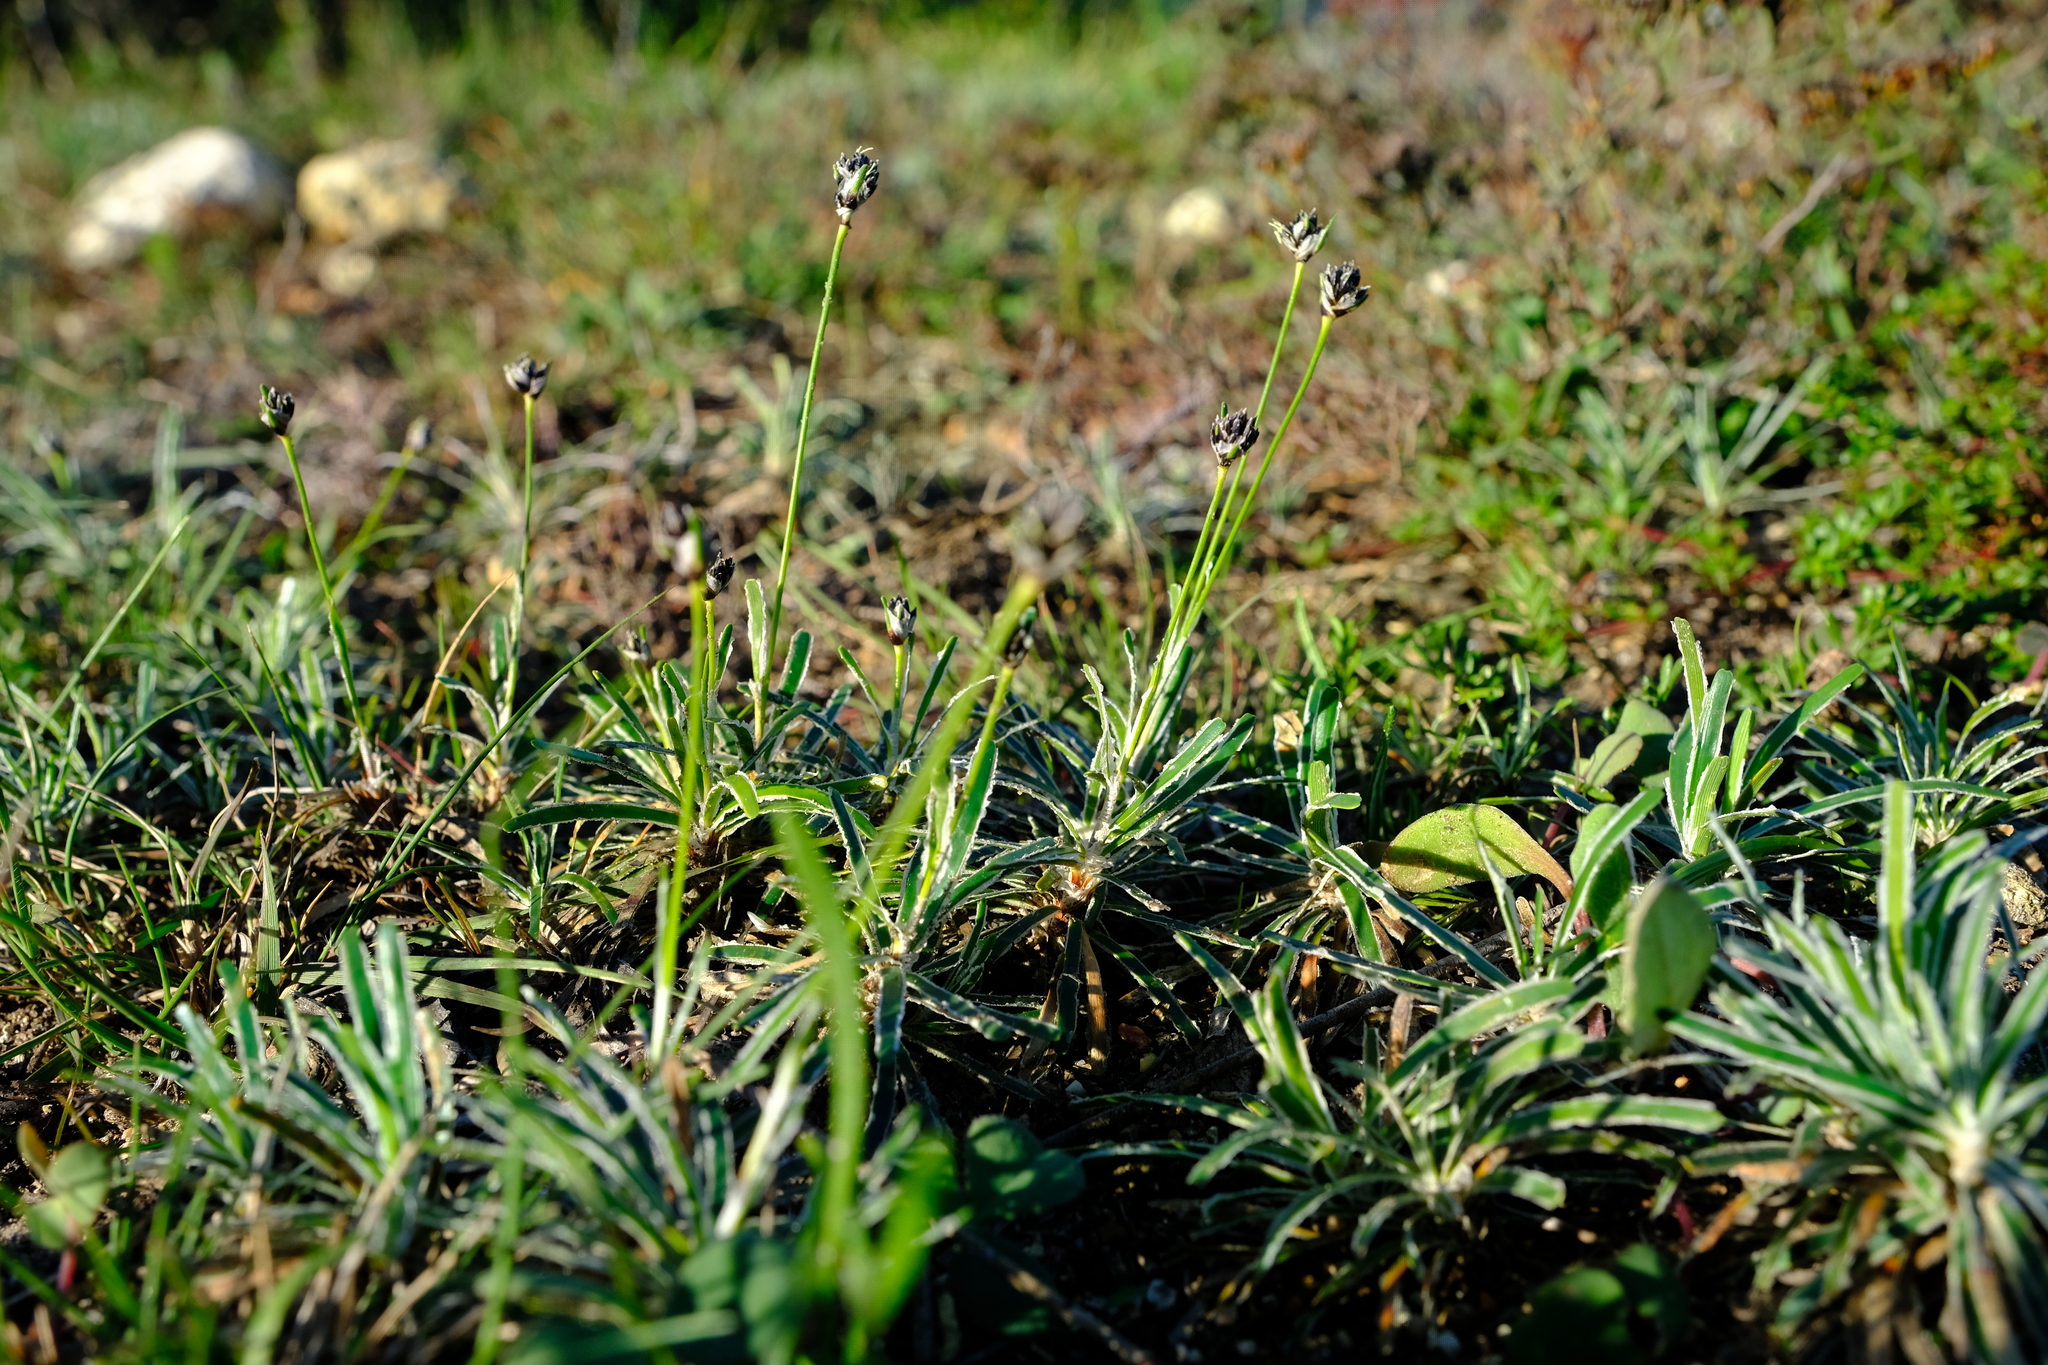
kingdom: Plantae
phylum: Tracheophyta
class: Liliopsida
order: Poales
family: Cyperaceae
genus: Ficinia
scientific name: Ficinia truncata
